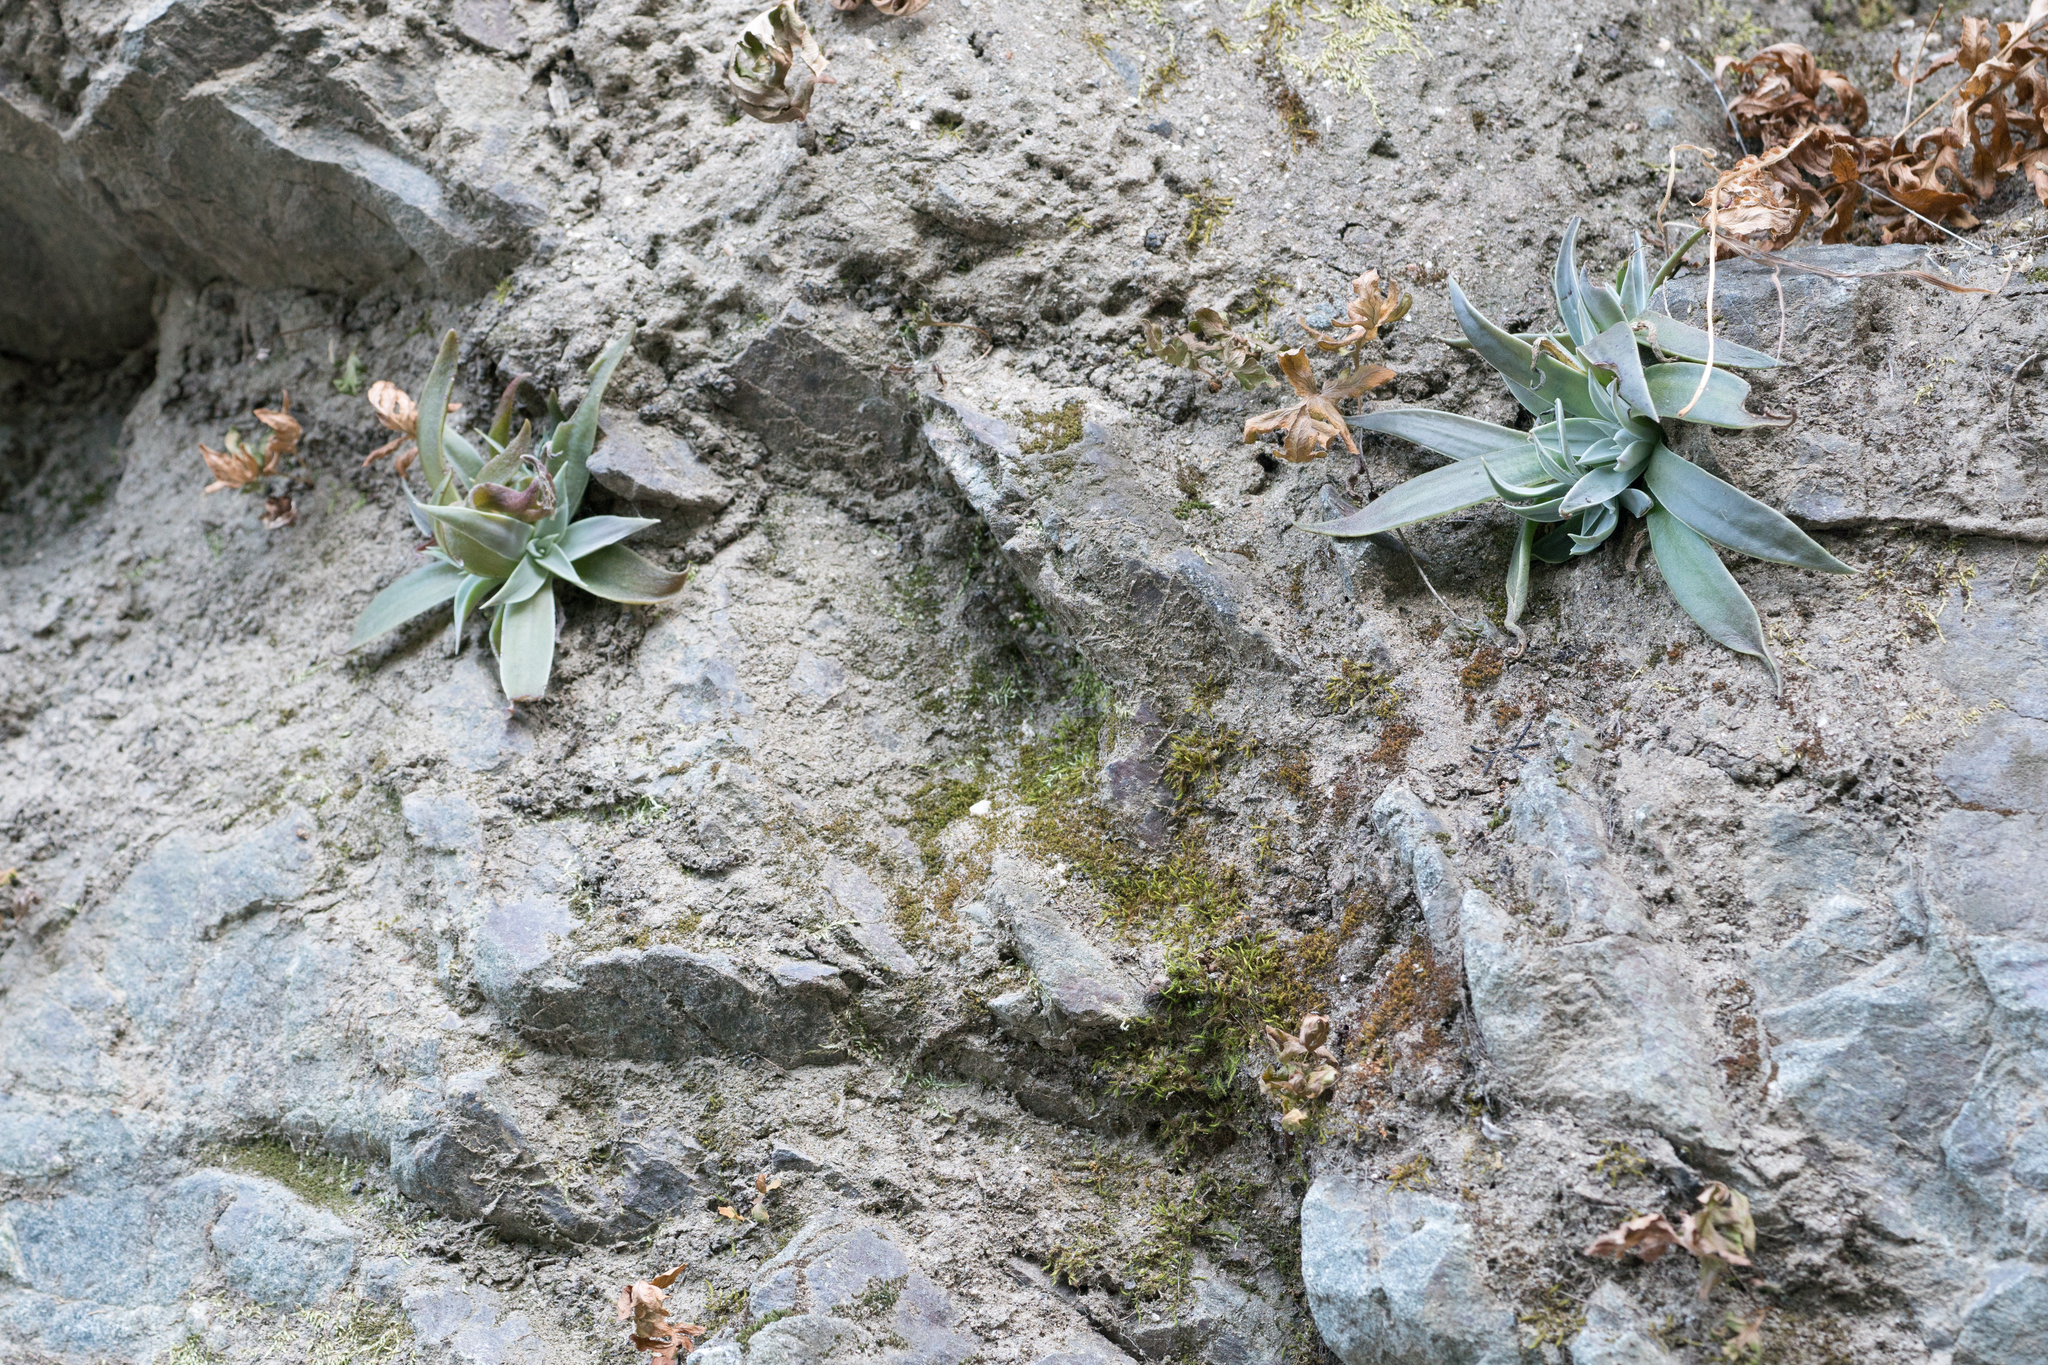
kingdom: Plantae
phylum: Tracheophyta
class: Magnoliopsida
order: Saxifragales
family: Crassulaceae
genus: Dudleya
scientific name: Dudleya lanceolata
